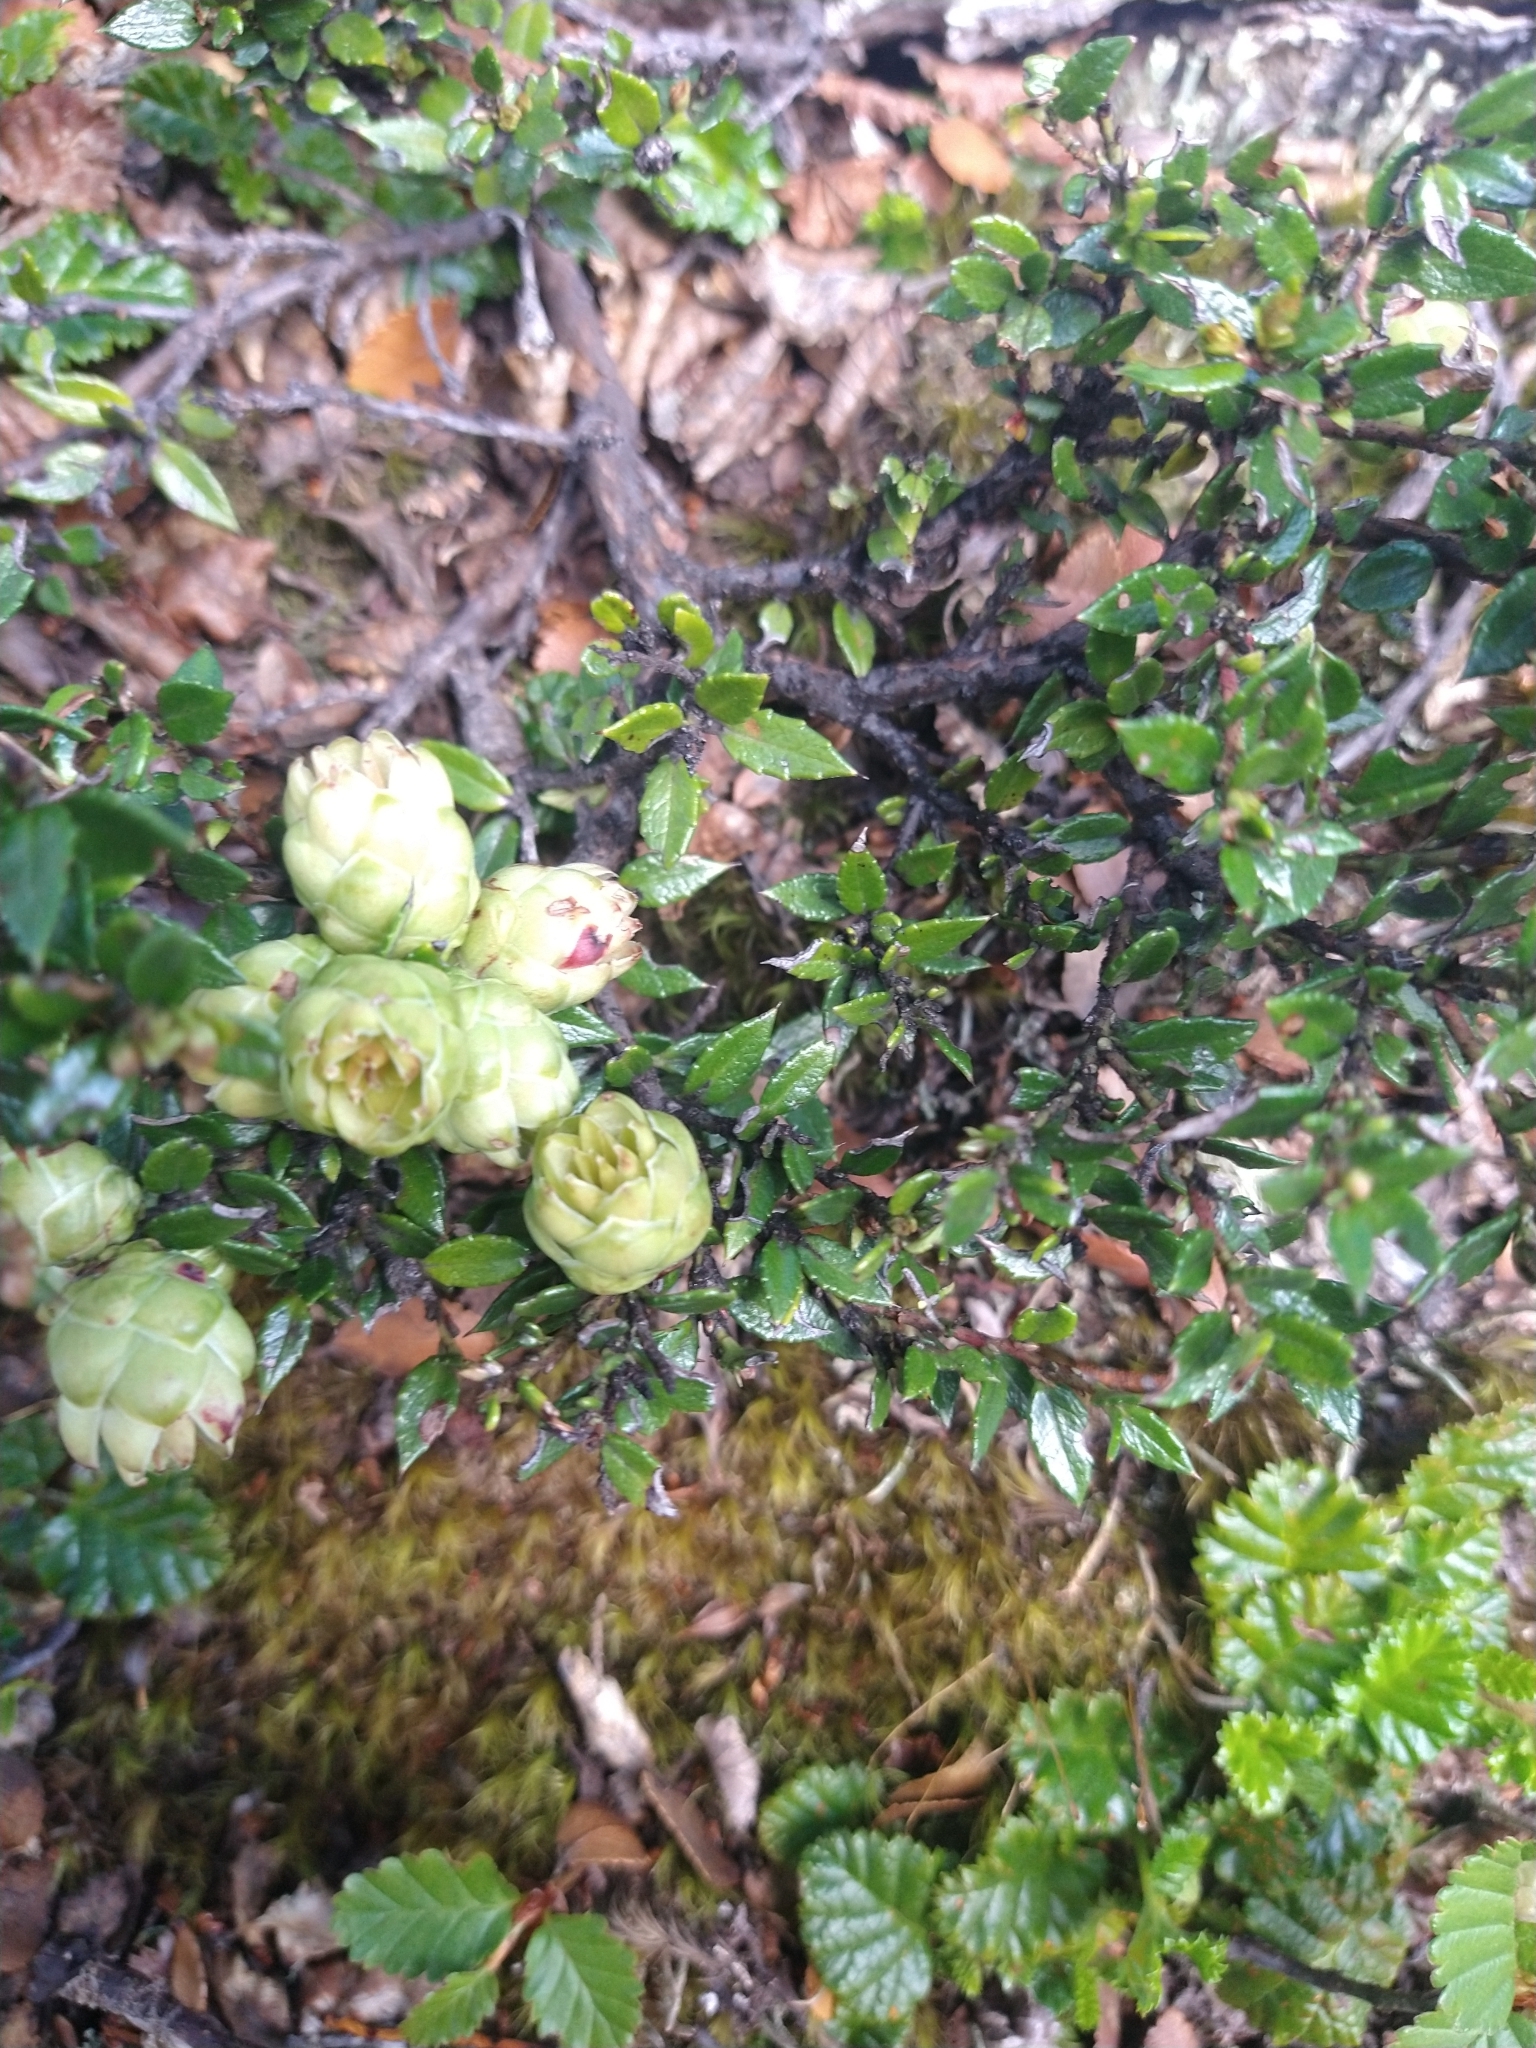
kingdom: Plantae
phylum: Tracheophyta
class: Magnoliopsida
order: Ericales
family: Ericaceae
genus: Gaultheria
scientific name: Gaultheria mucronata
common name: Prickly heath
